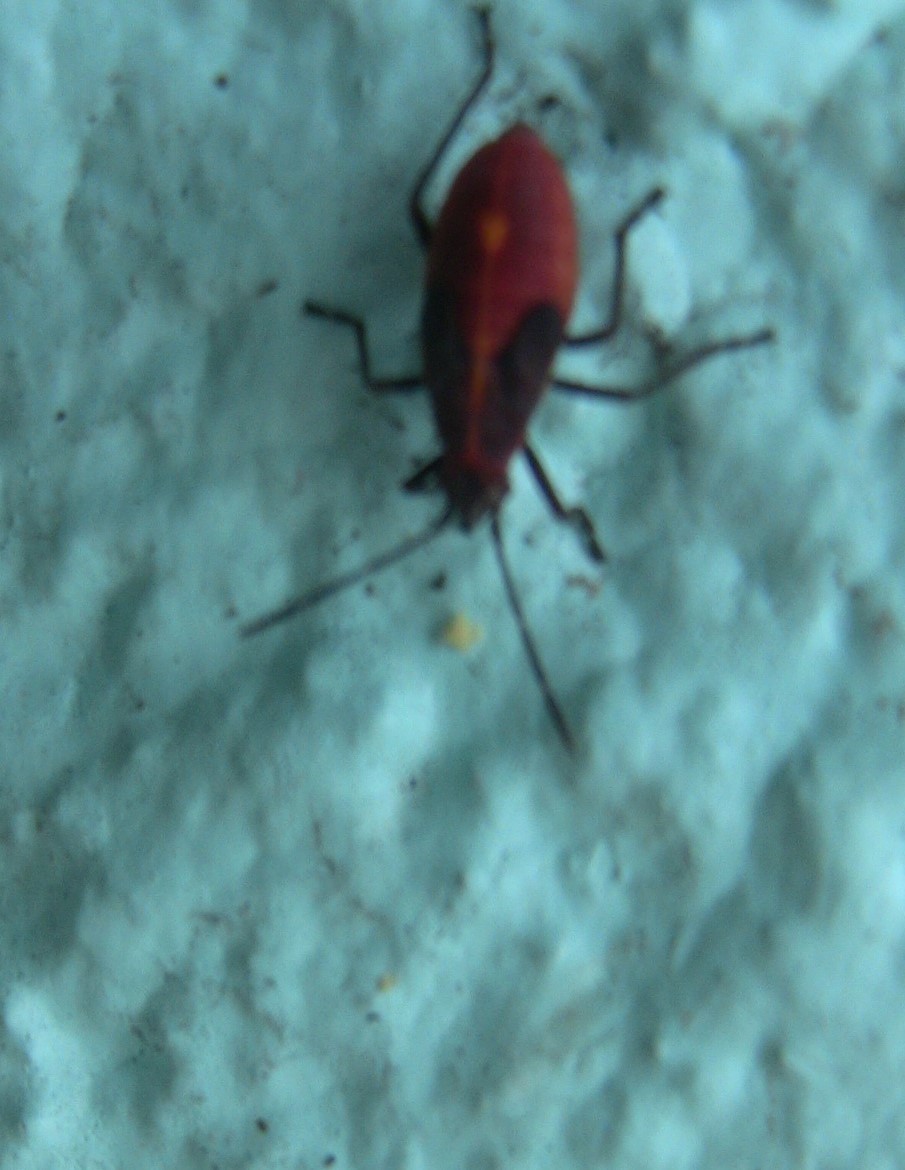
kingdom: Animalia
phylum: Arthropoda
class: Insecta
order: Hemiptera
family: Rhopalidae
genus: Boisea
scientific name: Boisea trivittata
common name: Boxelder bug
